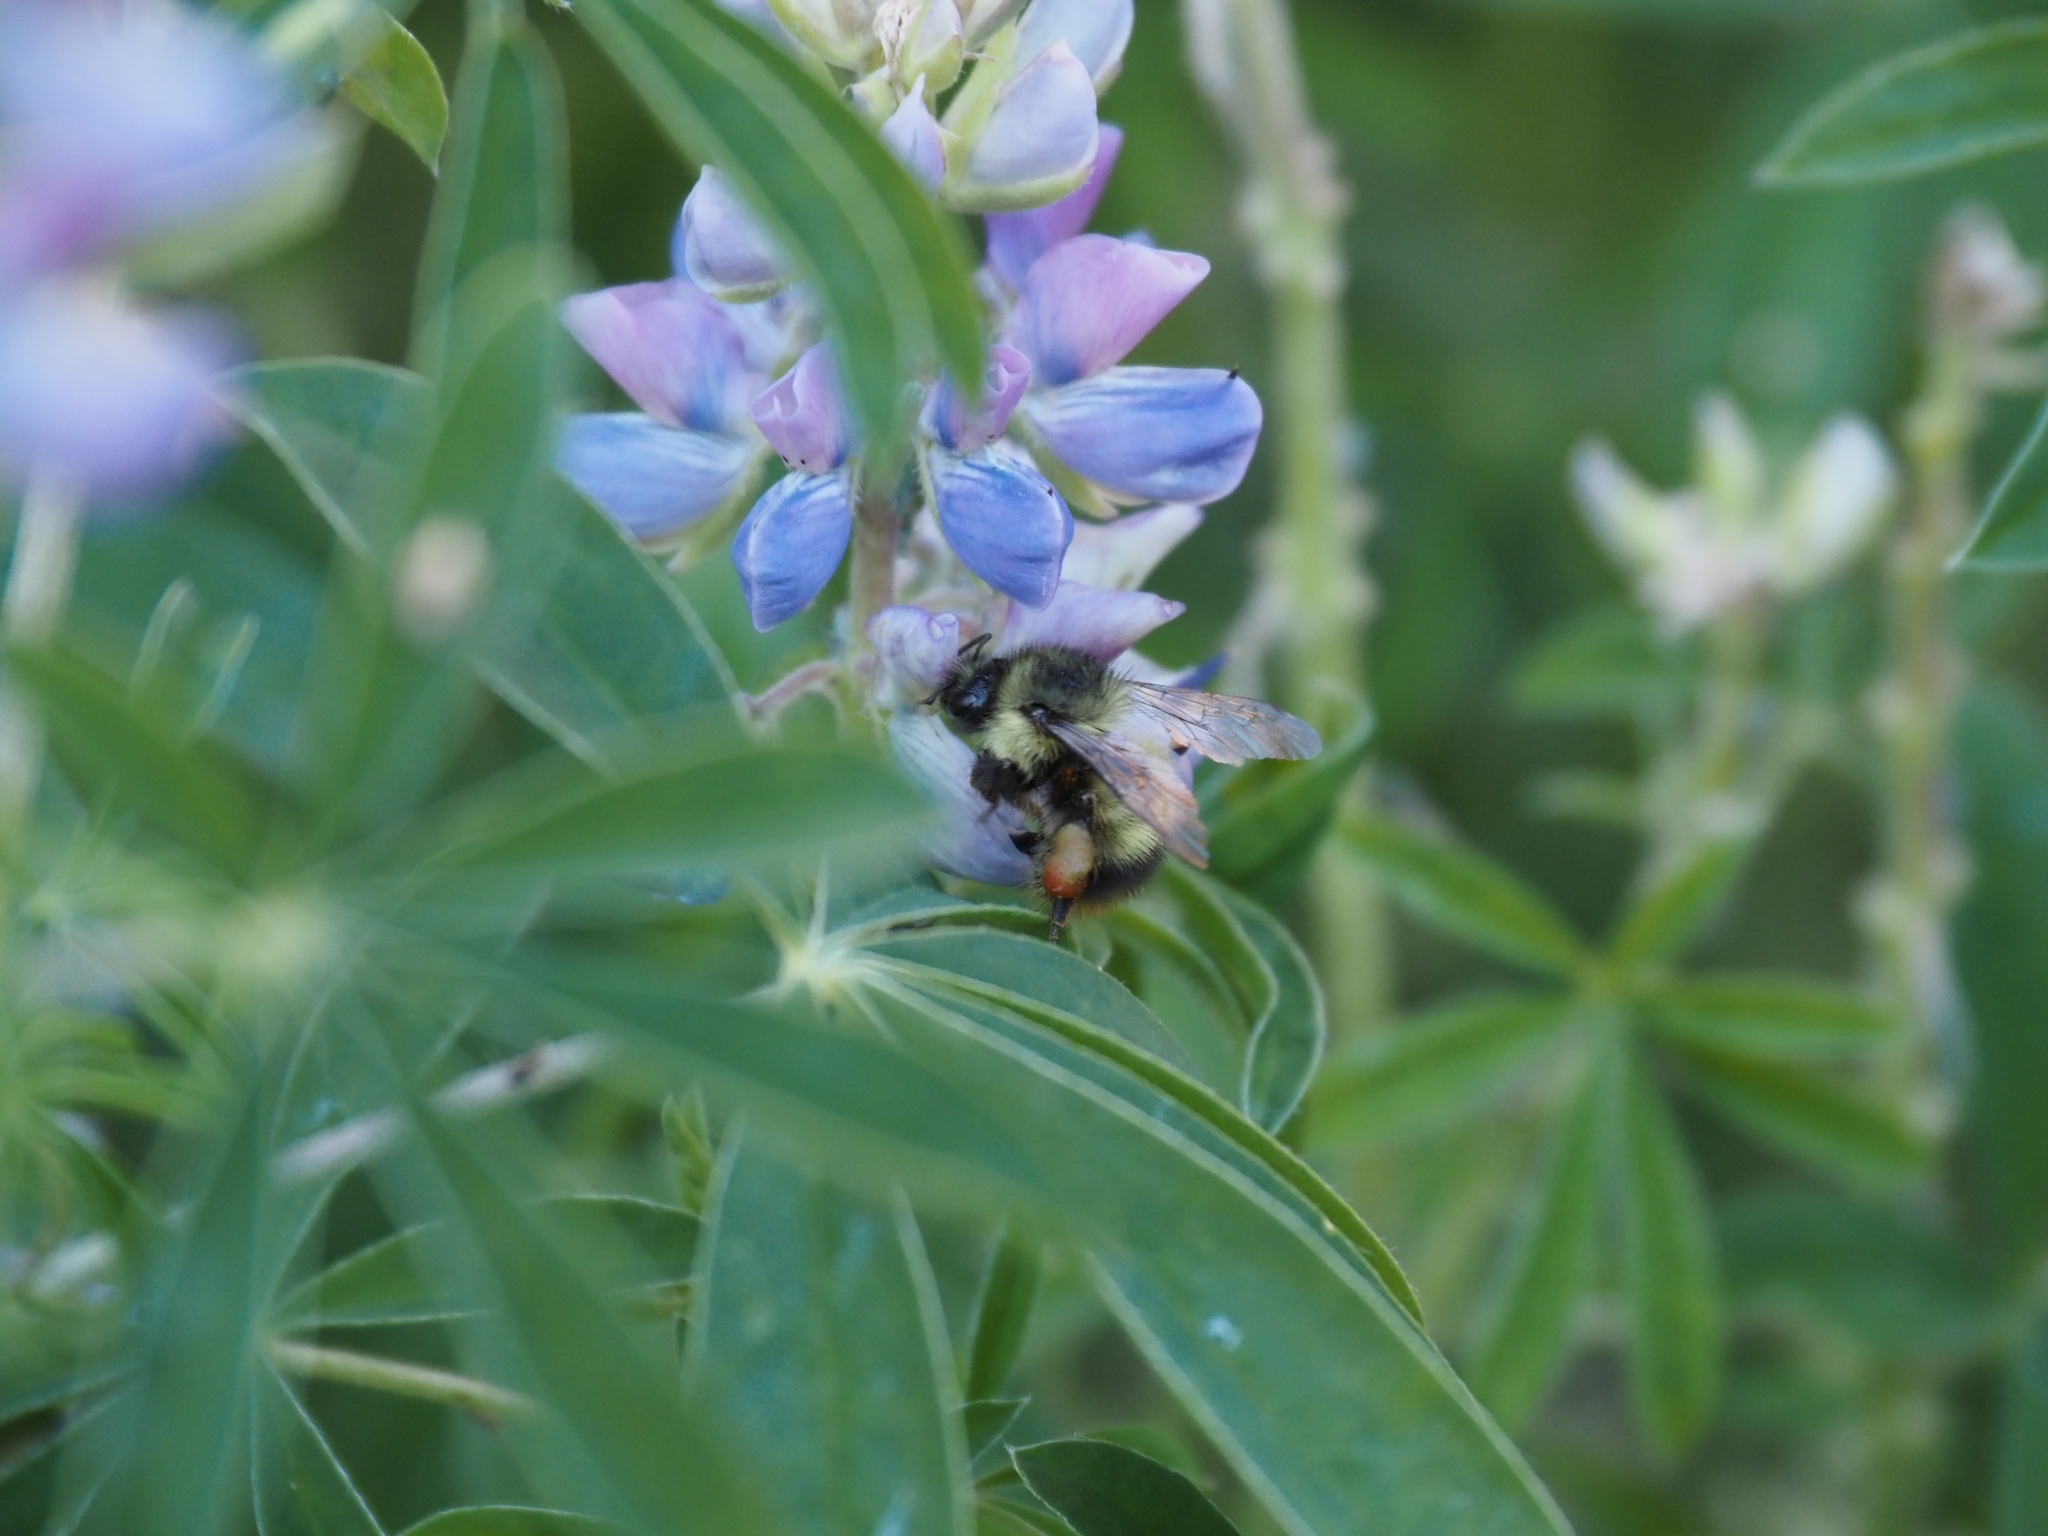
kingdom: Animalia
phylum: Arthropoda
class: Insecta
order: Hymenoptera
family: Apidae
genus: Bombus
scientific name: Bombus mixtus
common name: Fuzzy-horned bumble bee
